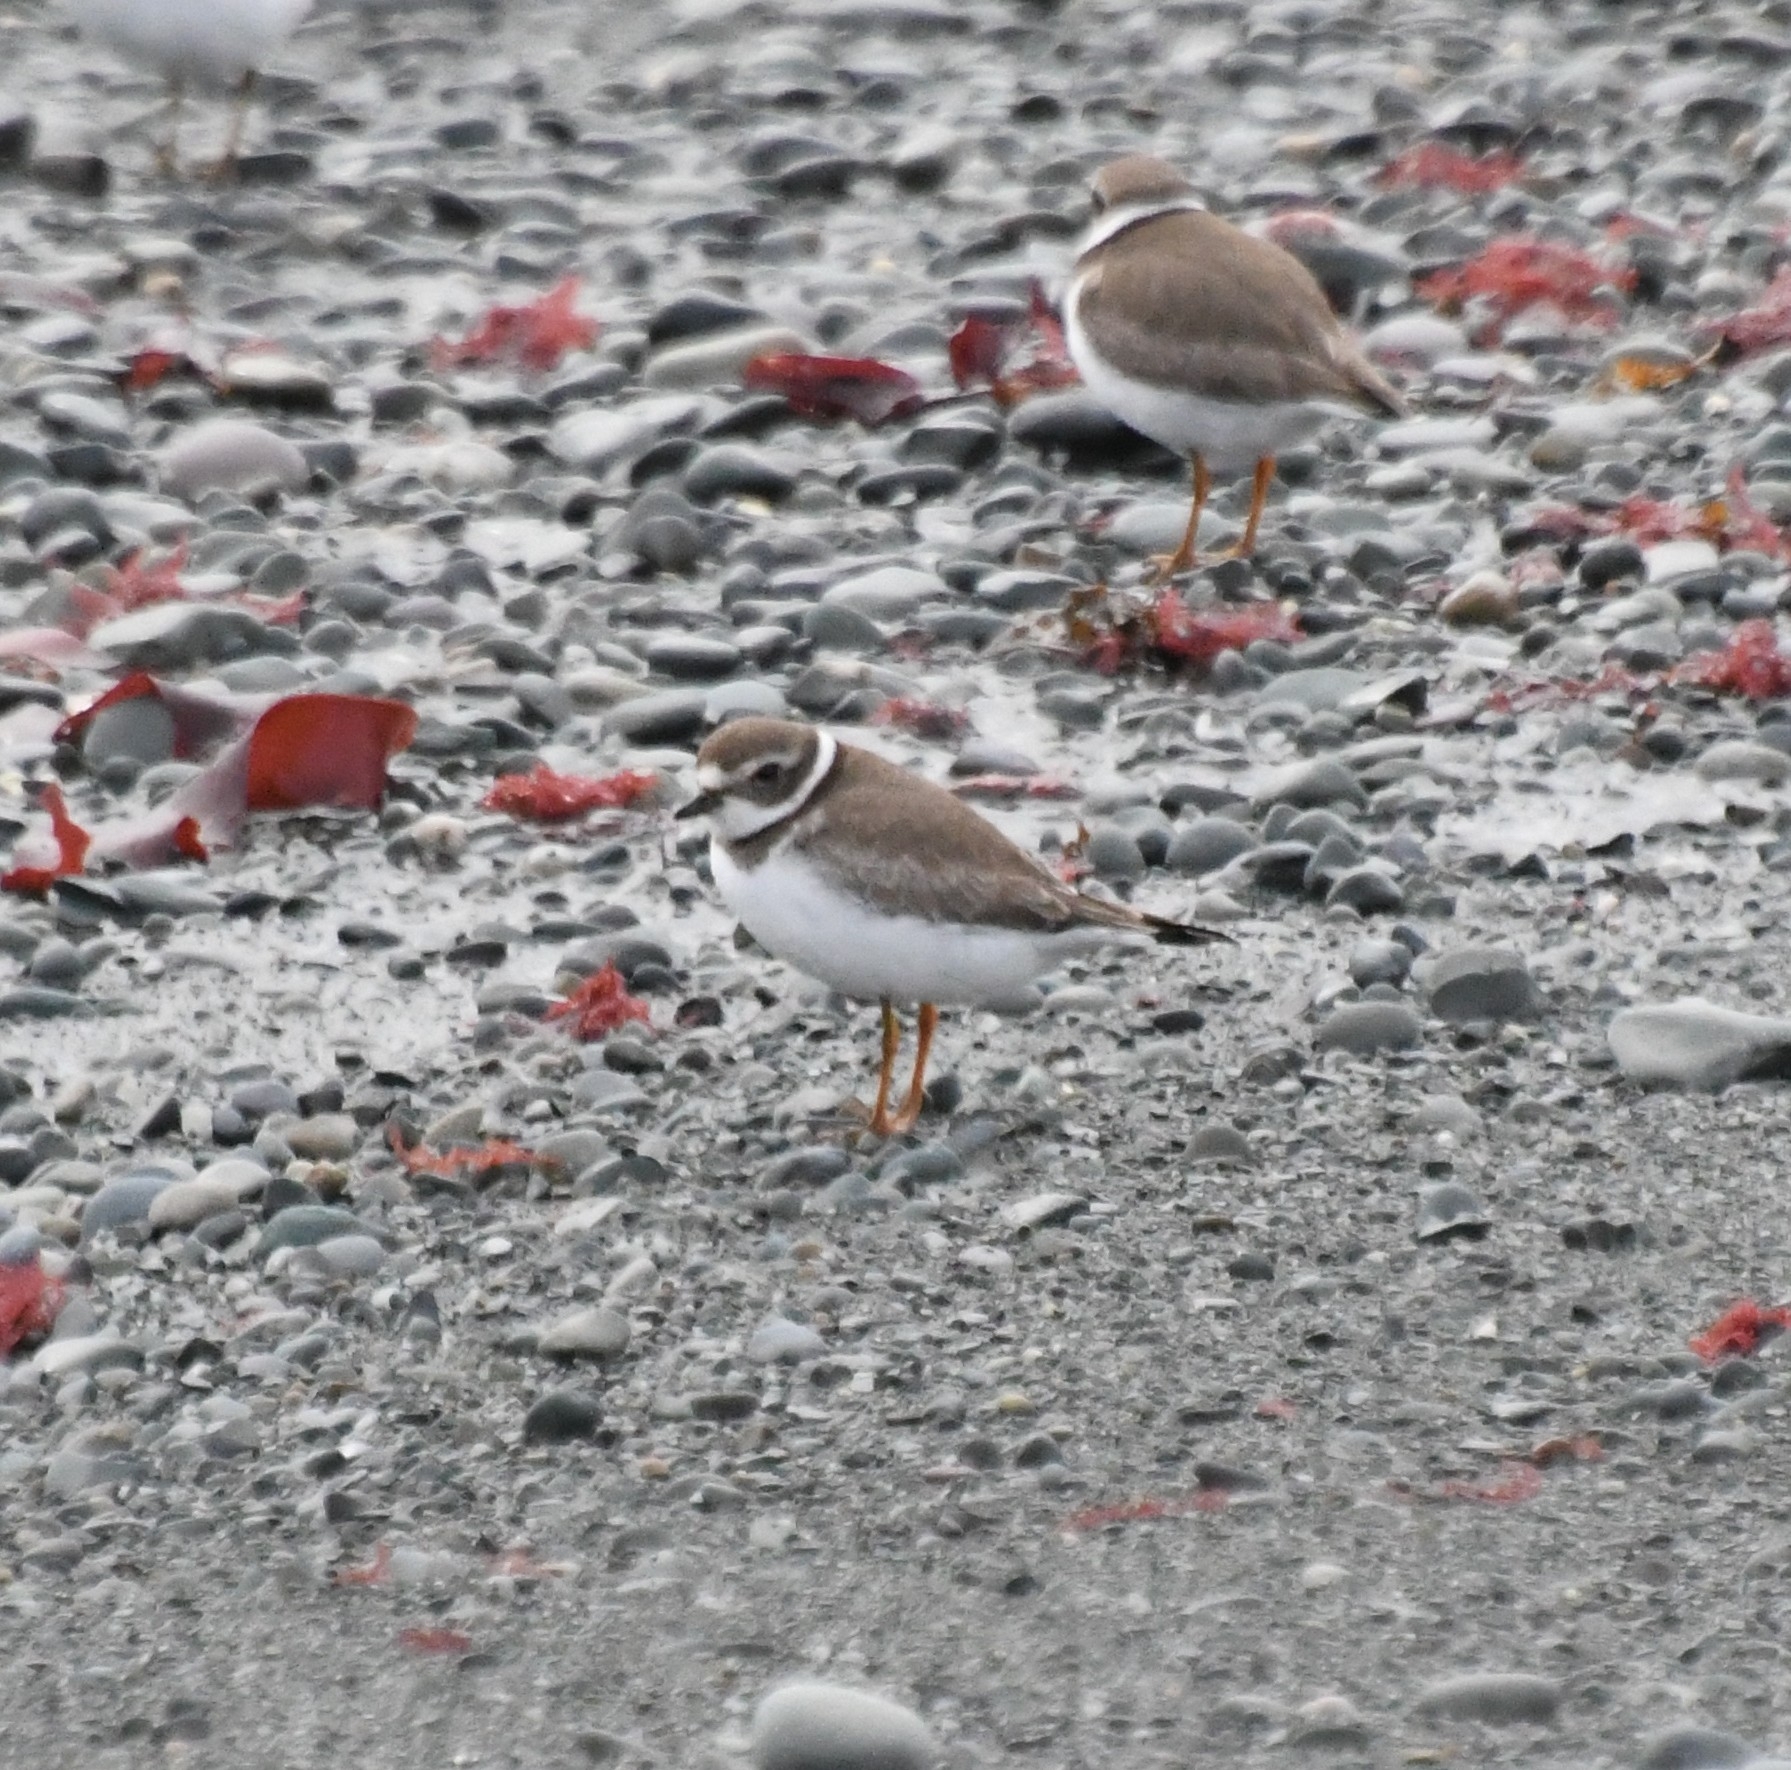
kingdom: Animalia
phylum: Chordata
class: Aves
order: Charadriiformes
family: Charadriidae
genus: Charadrius
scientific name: Charadrius semipalmatus
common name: Semipalmated plover
